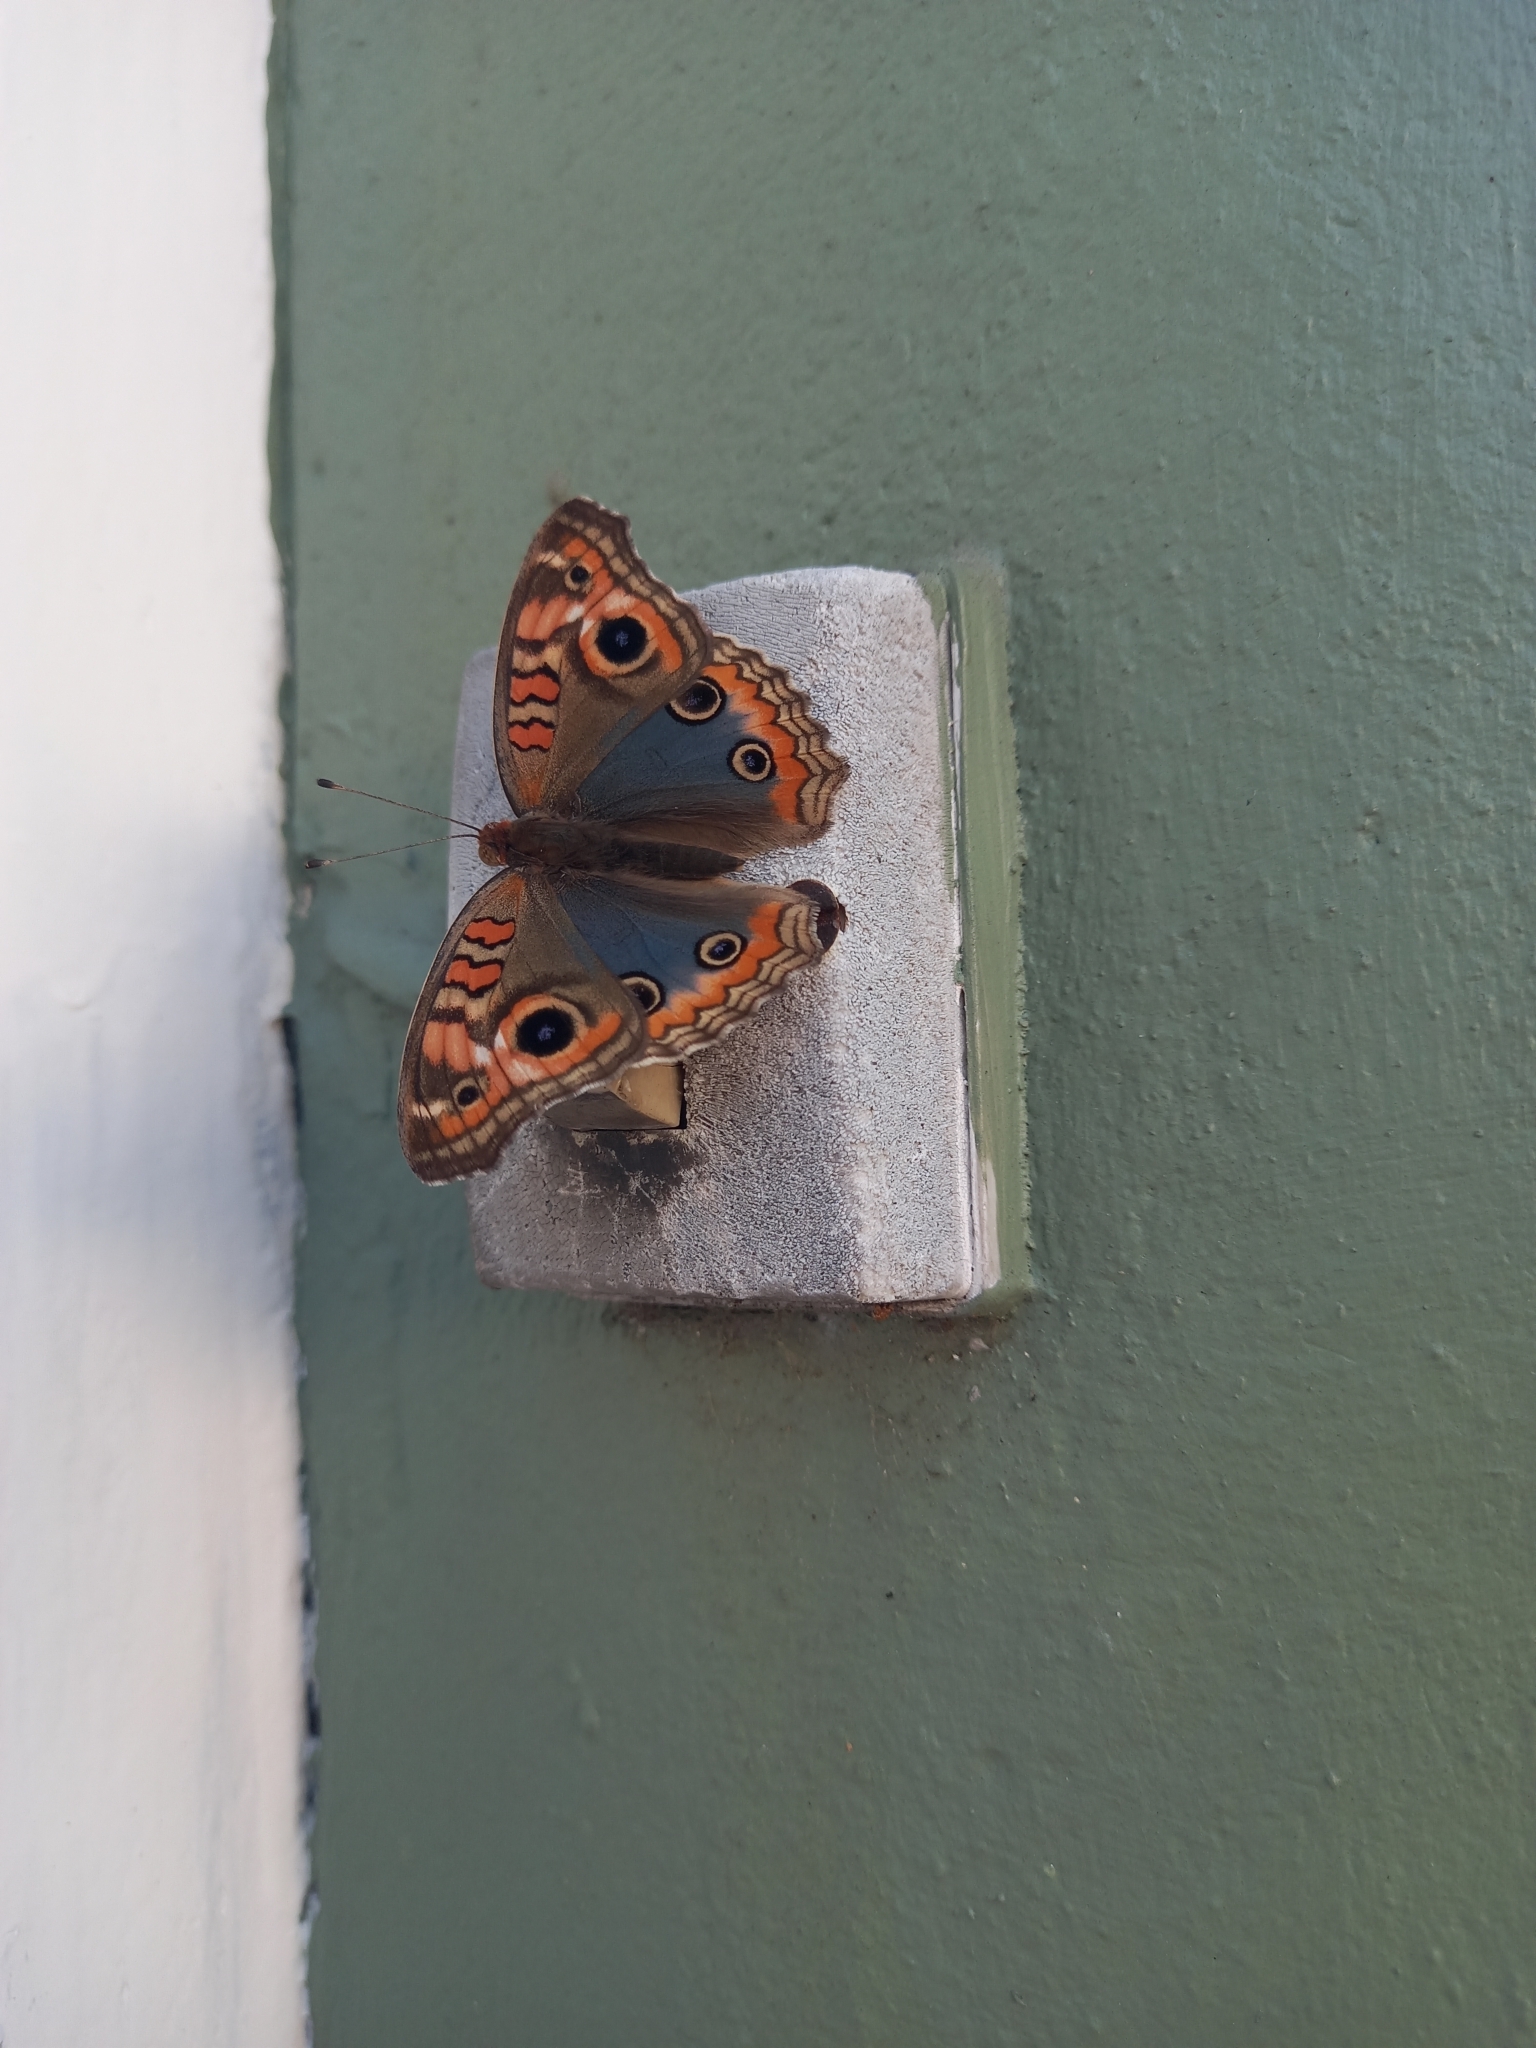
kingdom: Animalia
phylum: Arthropoda
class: Insecta
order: Lepidoptera
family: Nymphalidae
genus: Junonia
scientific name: Junonia lavinia
